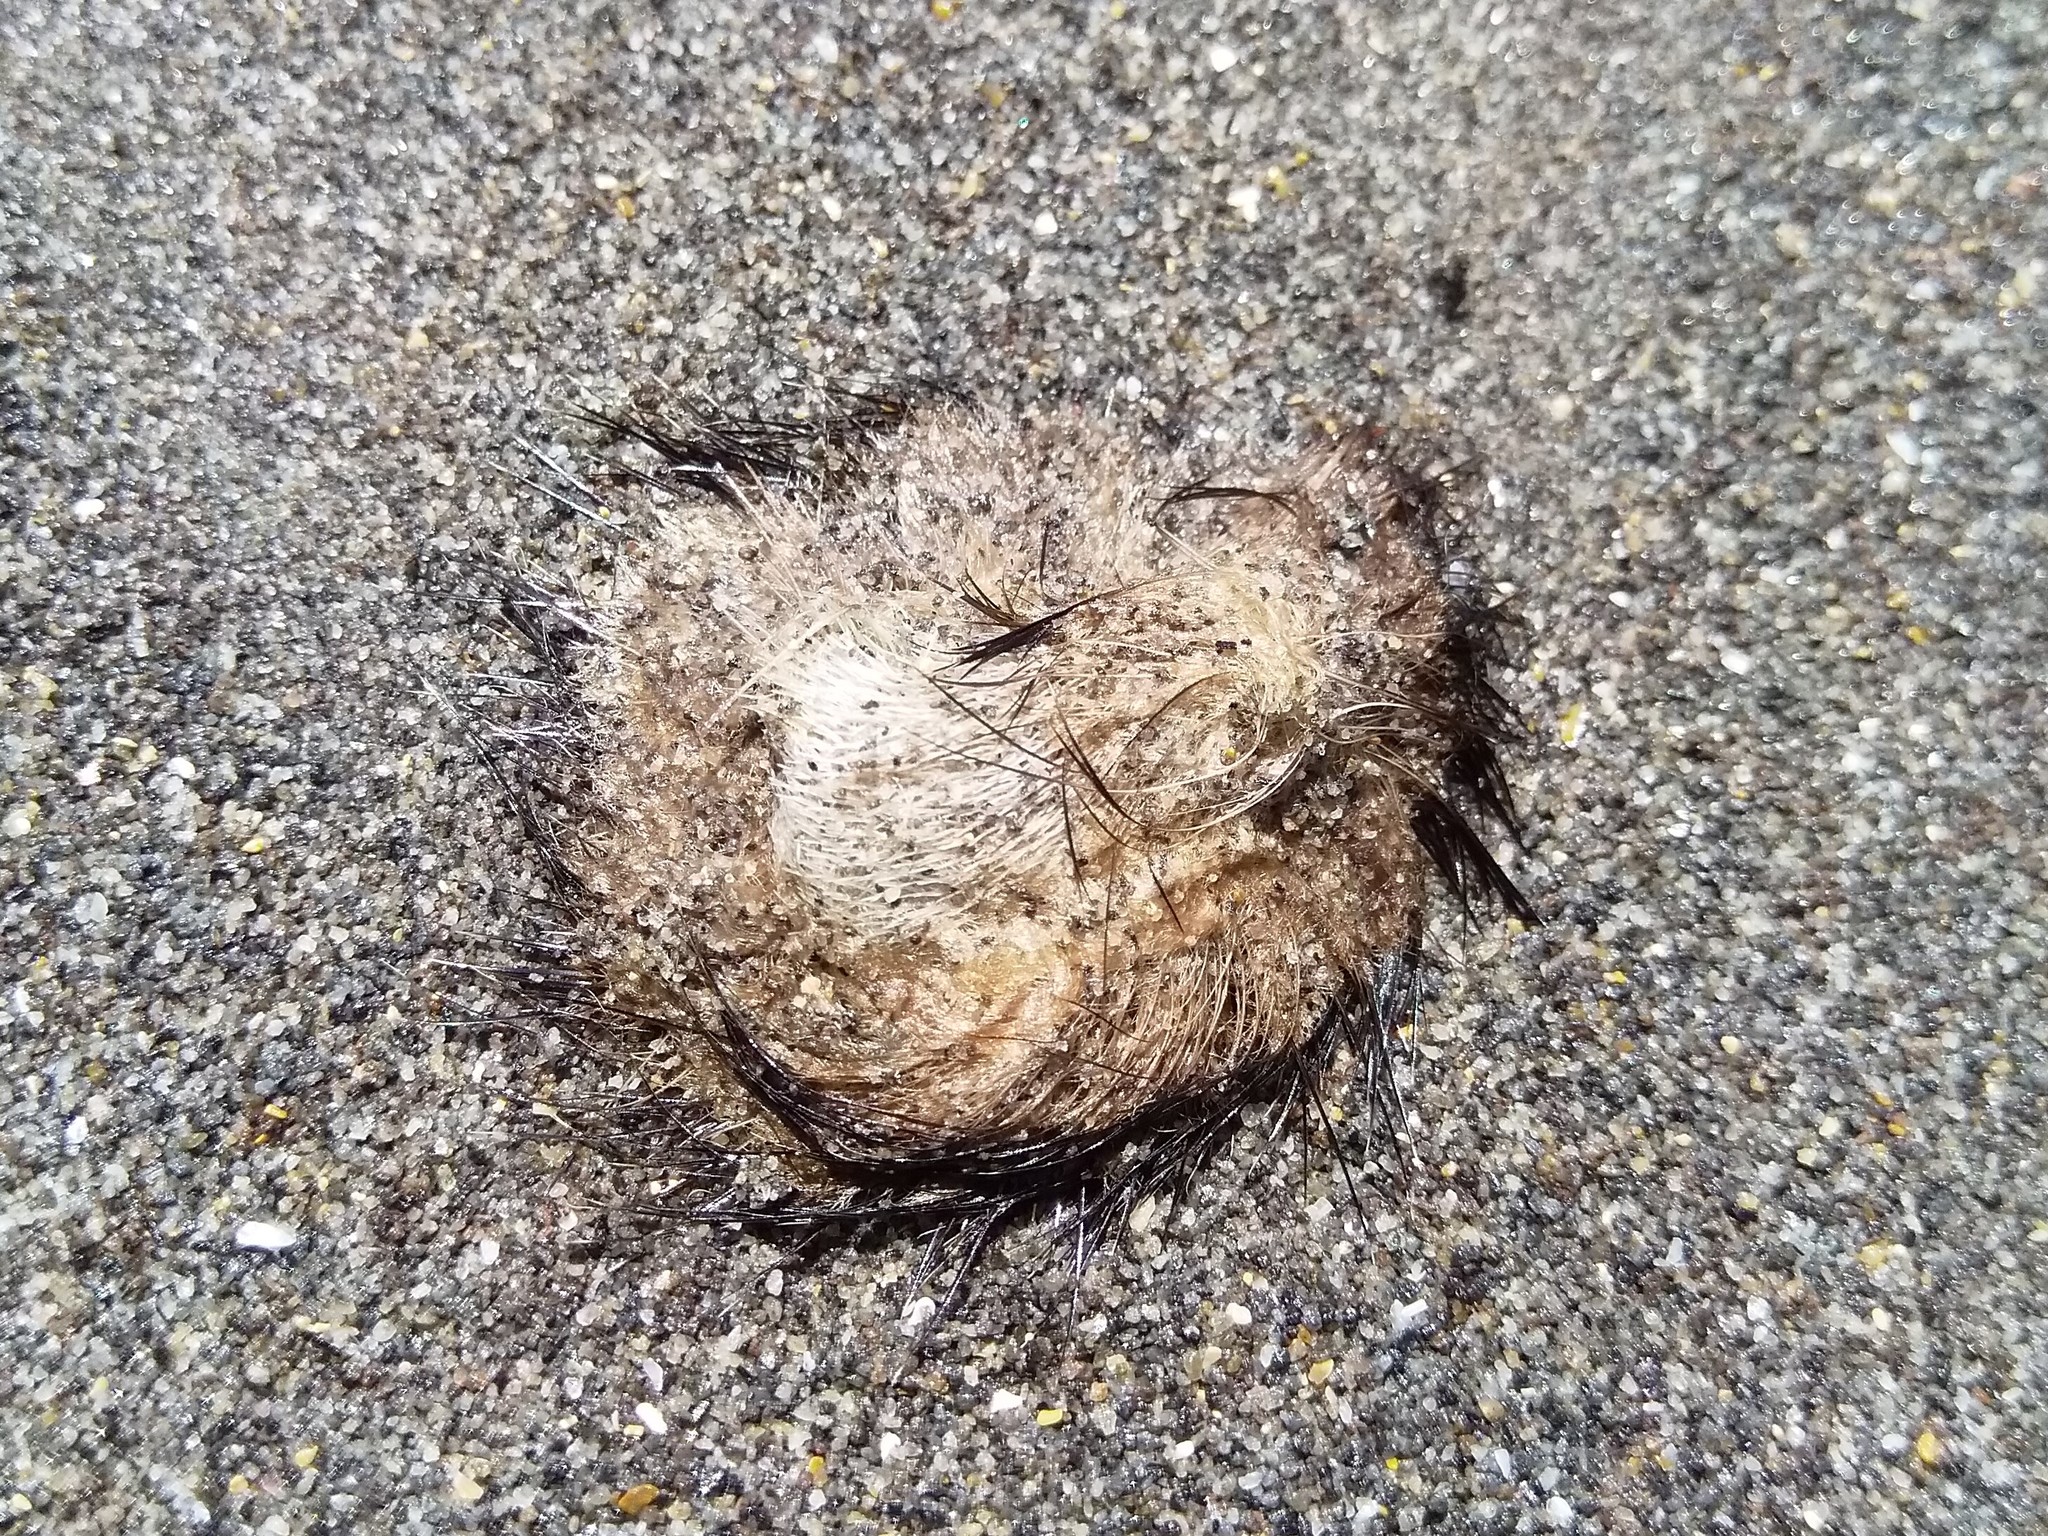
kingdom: Animalia
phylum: Chordata
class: Mammalia
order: Carnivora
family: Otariidae
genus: Arctocephalus
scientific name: Arctocephalus forsteri
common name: New zealand fur seal
